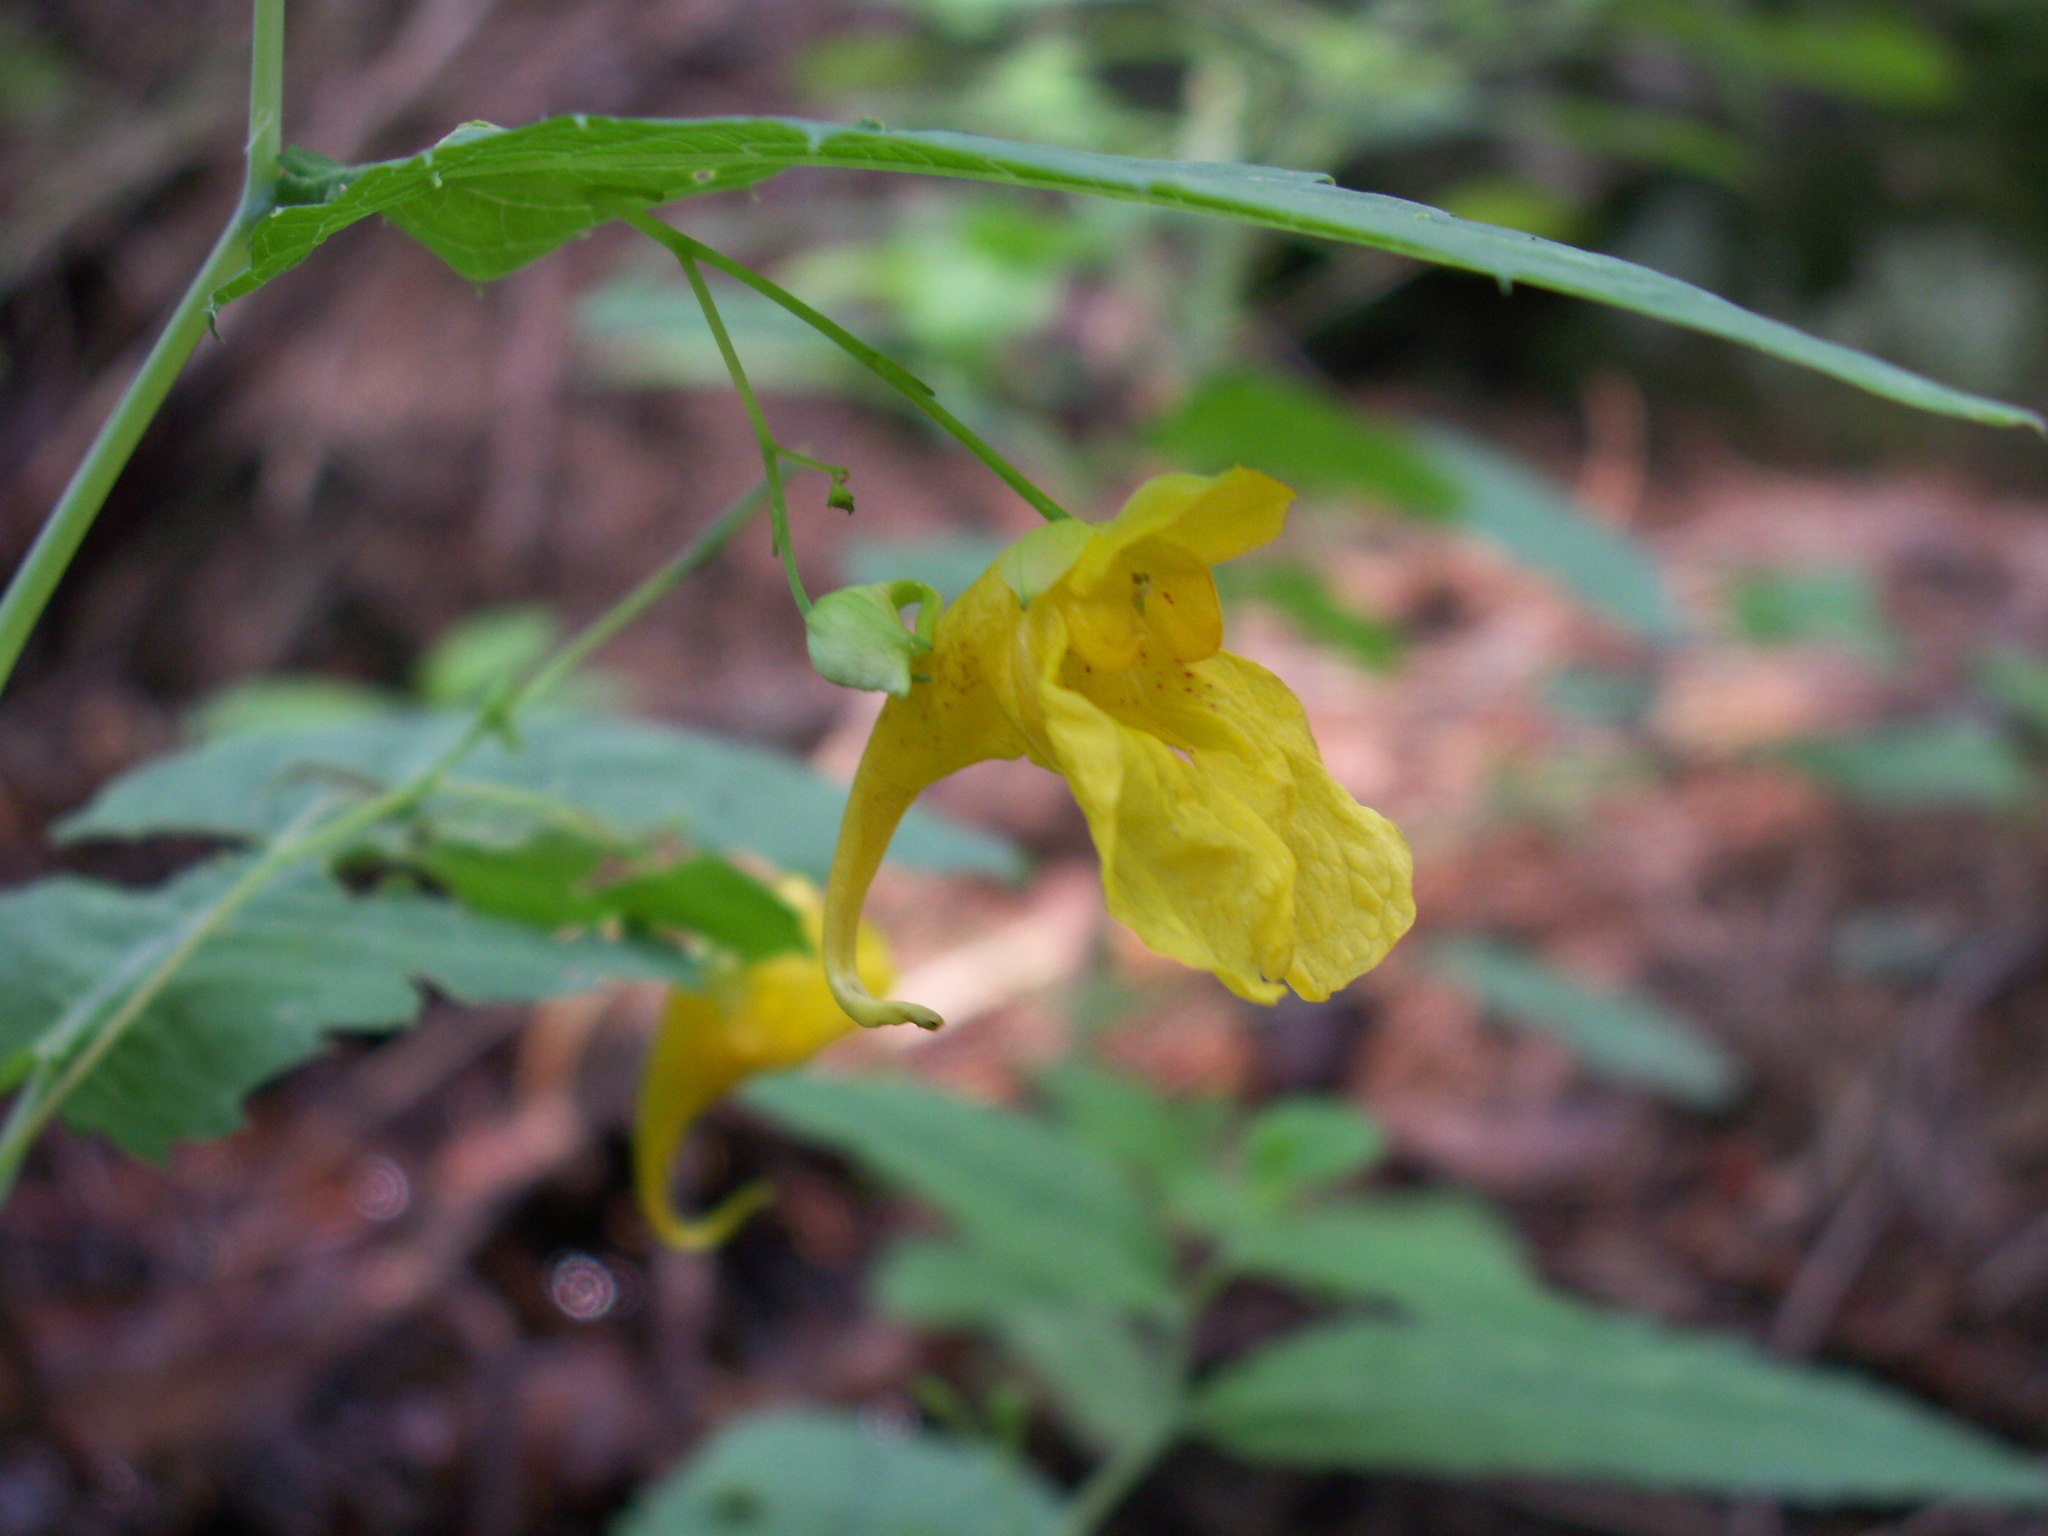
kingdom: Plantae
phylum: Tracheophyta
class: Magnoliopsida
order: Ericales
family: Balsaminaceae
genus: Impatiens
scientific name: Impatiens noli-tangere
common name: Touch-me-not balsam
